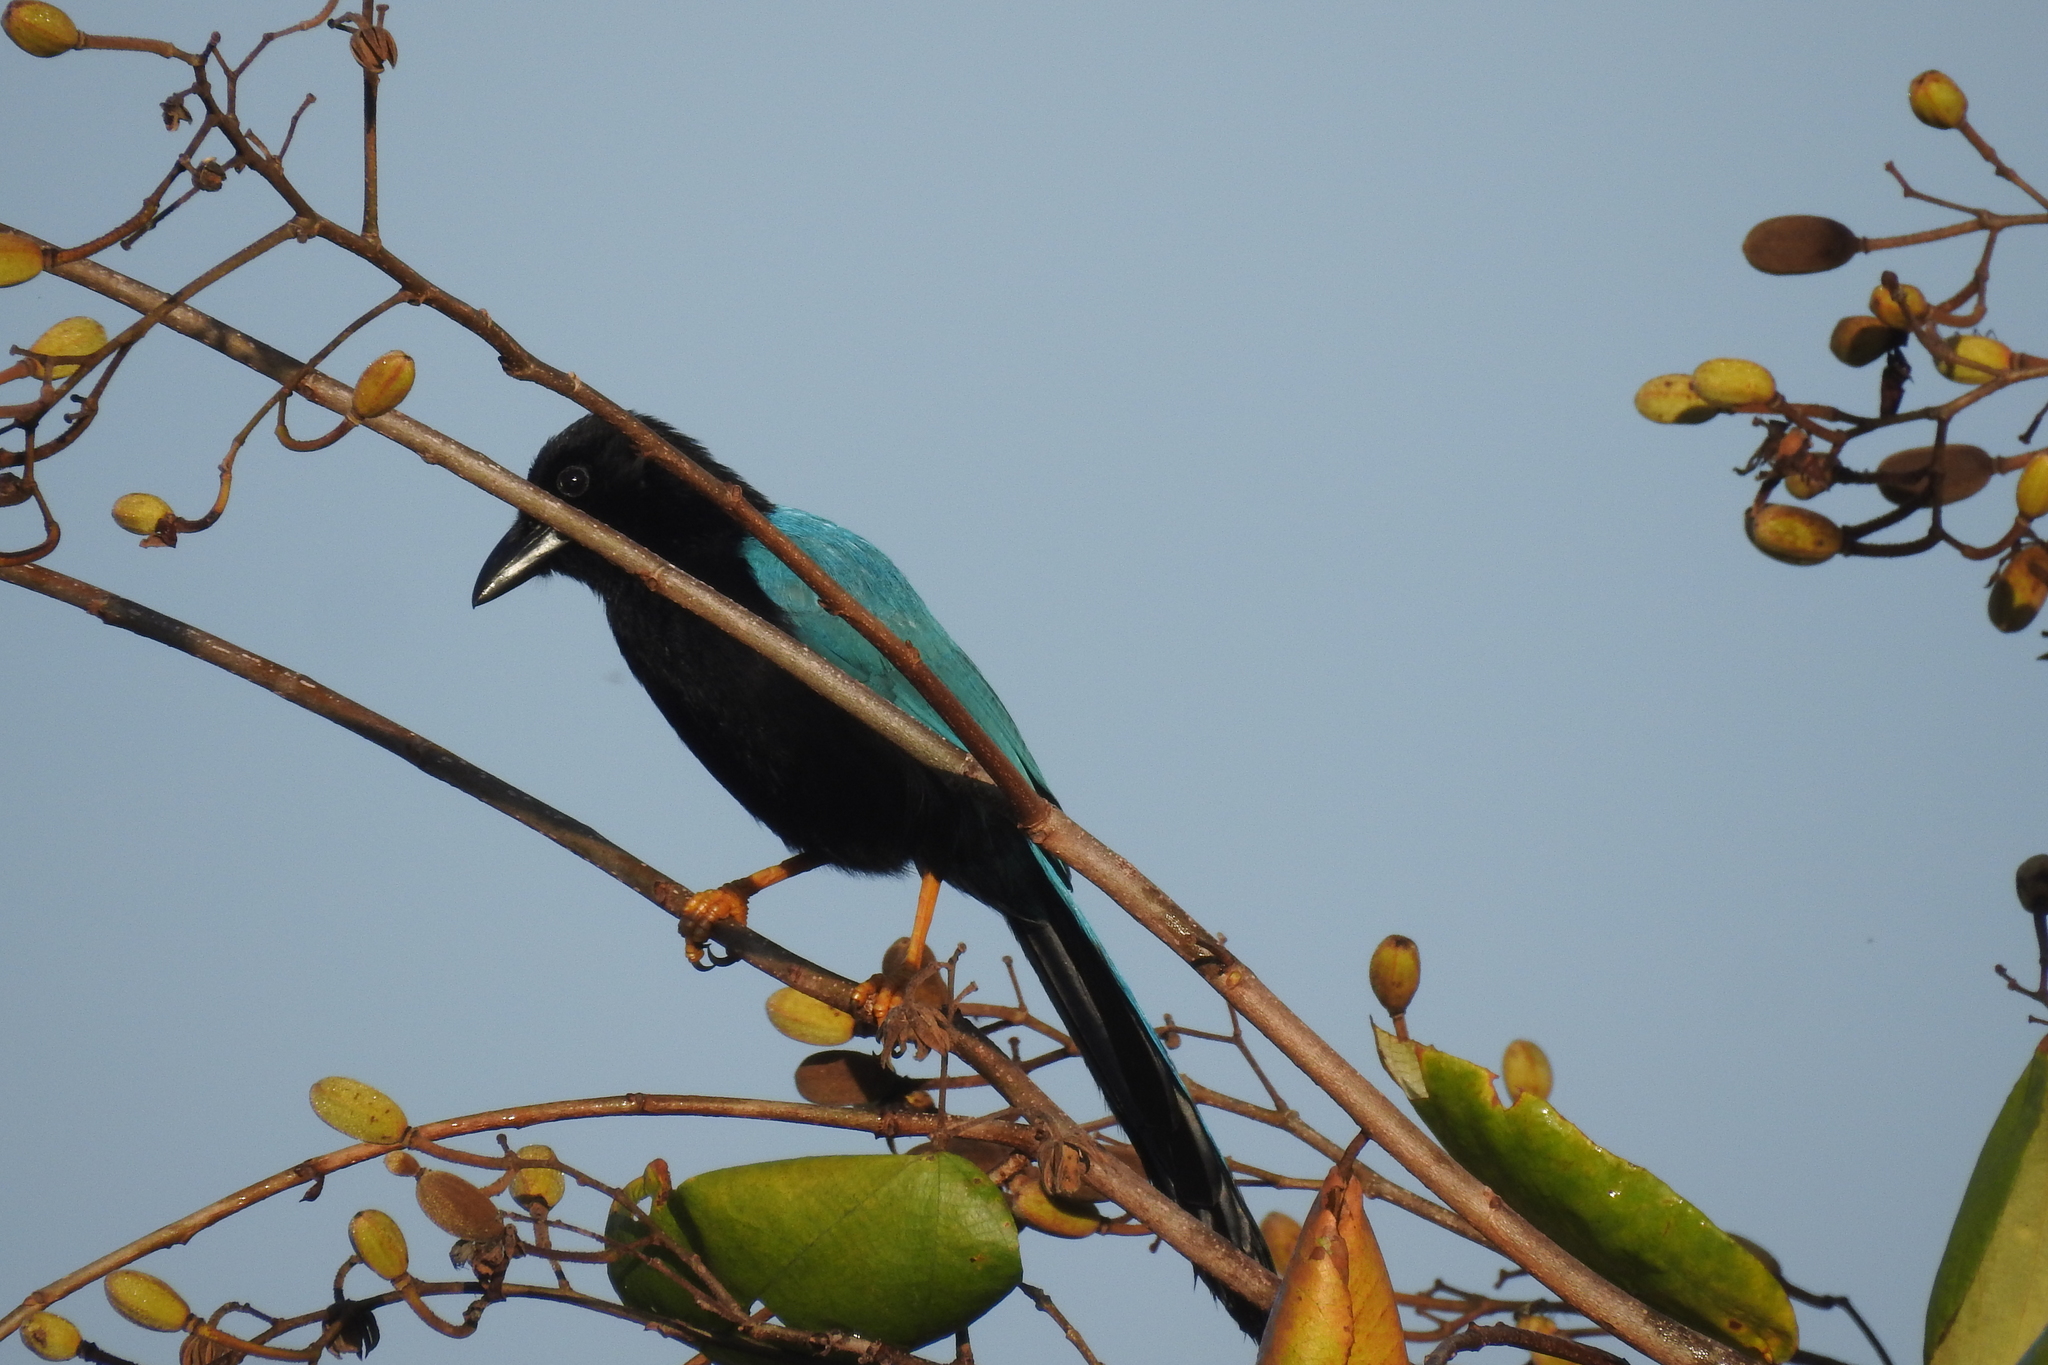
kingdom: Animalia
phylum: Chordata
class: Aves
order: Passeriformes
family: Corvidae
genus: Cyanocorax
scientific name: Cyanocorax yucatanicus
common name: Yucatan jay
